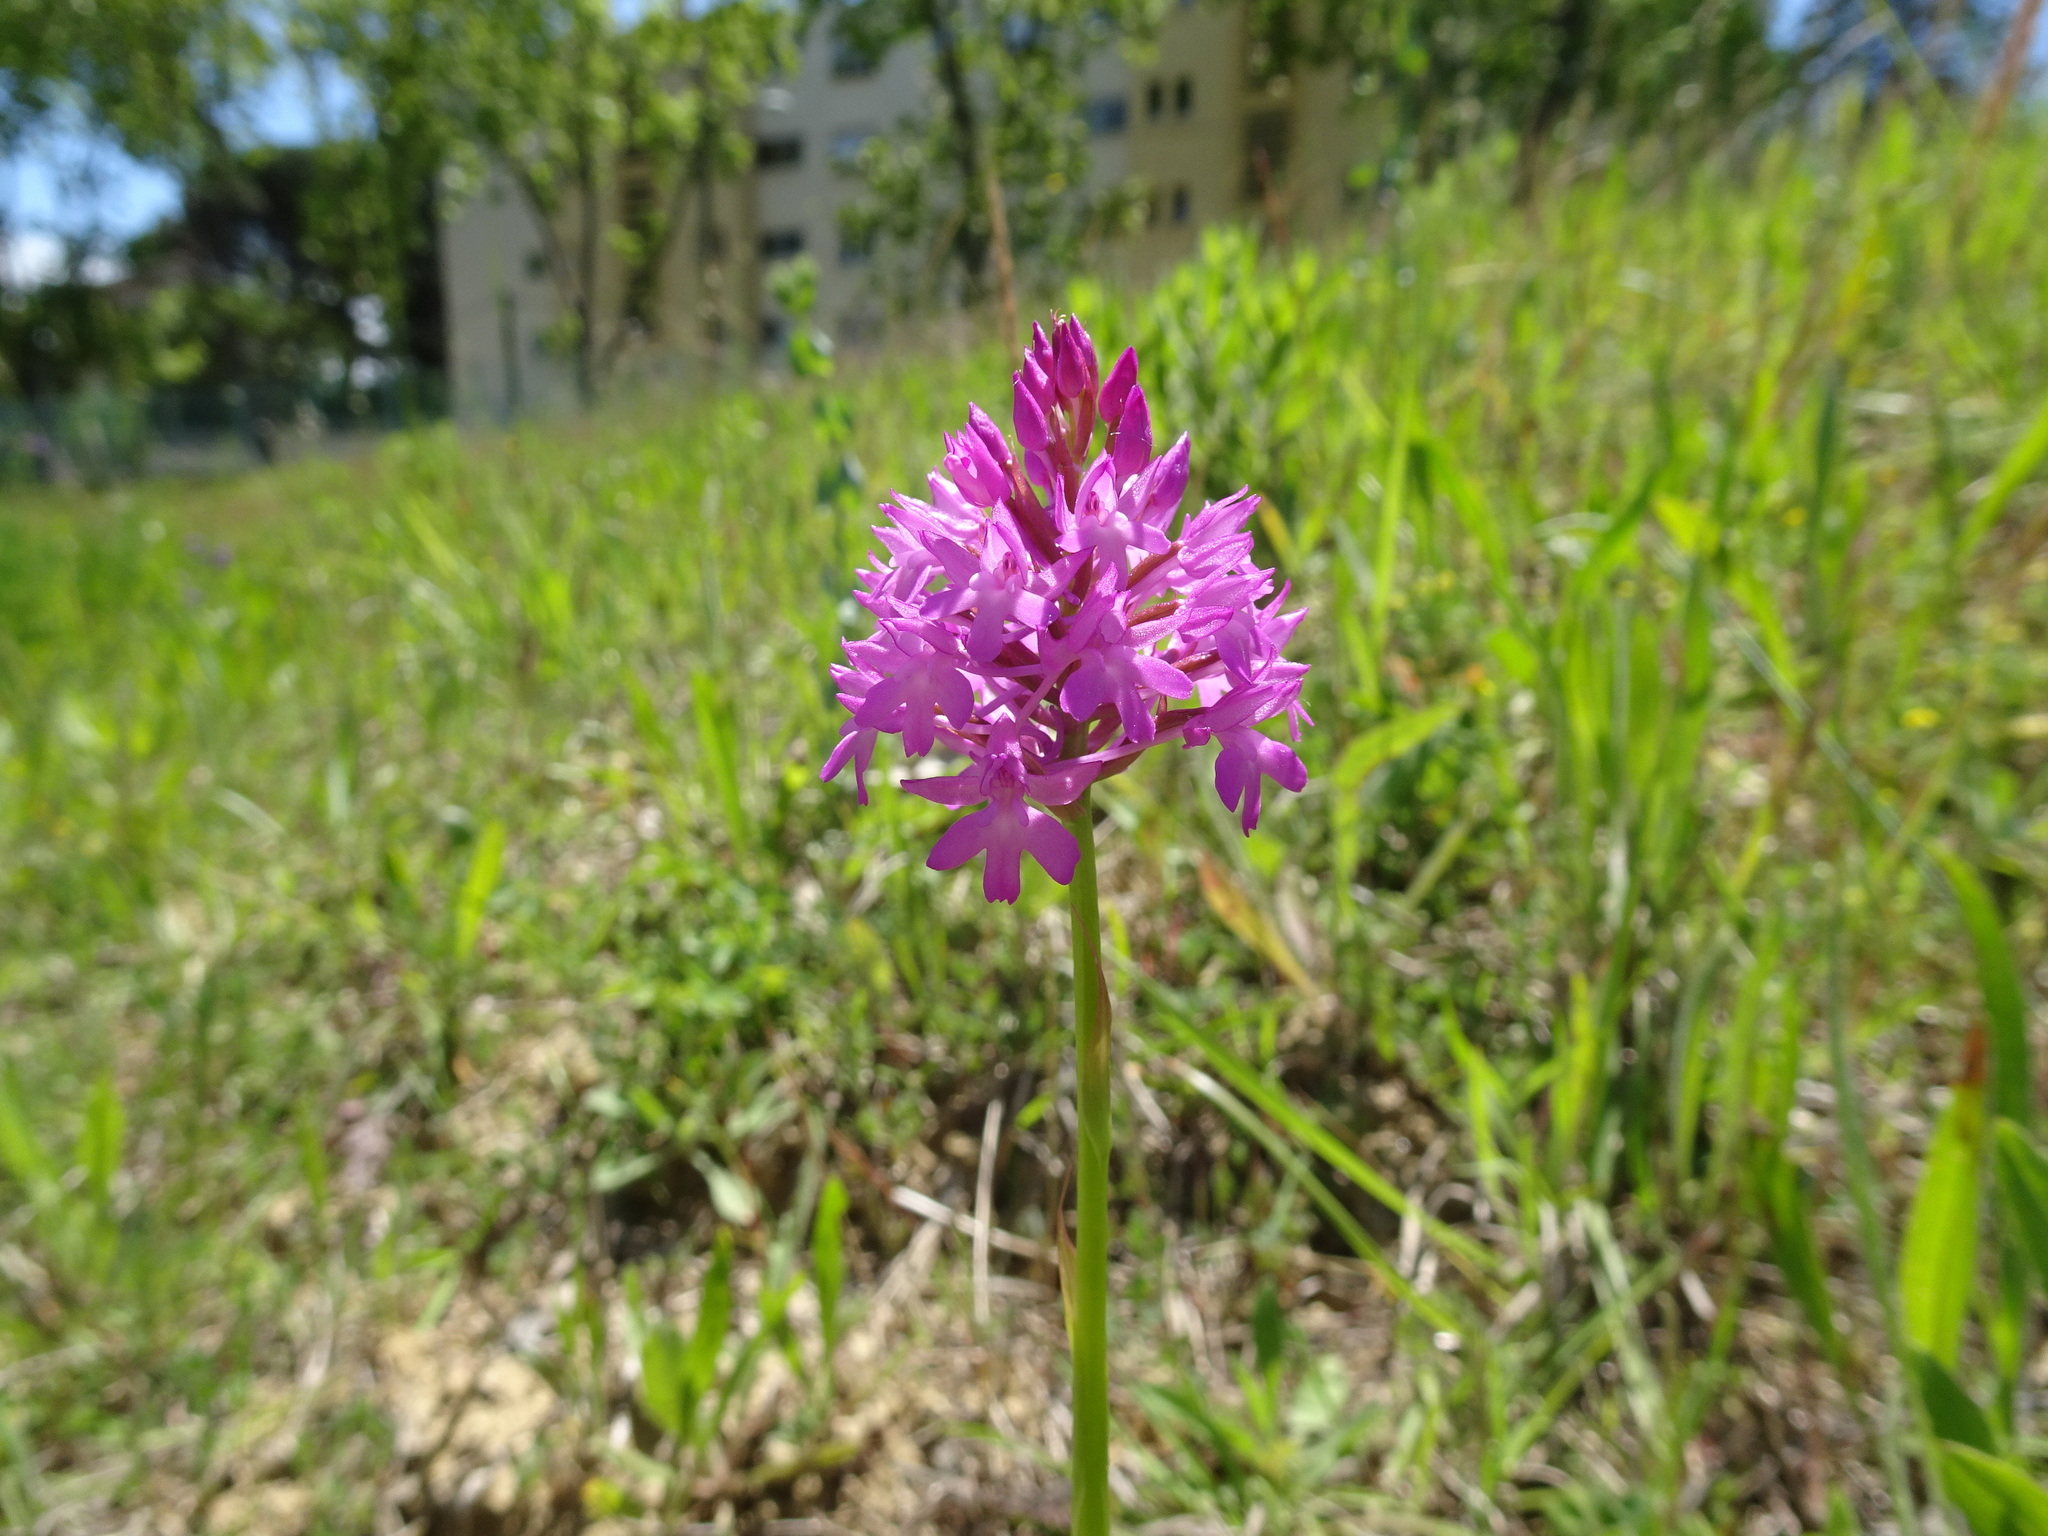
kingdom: Plantae
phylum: Tracheophyta
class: Liliopsida
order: Asparagales
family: Orchidaceae
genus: Anacamptis
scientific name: Anacamptis pyramidalis
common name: Pyramidal orchid
